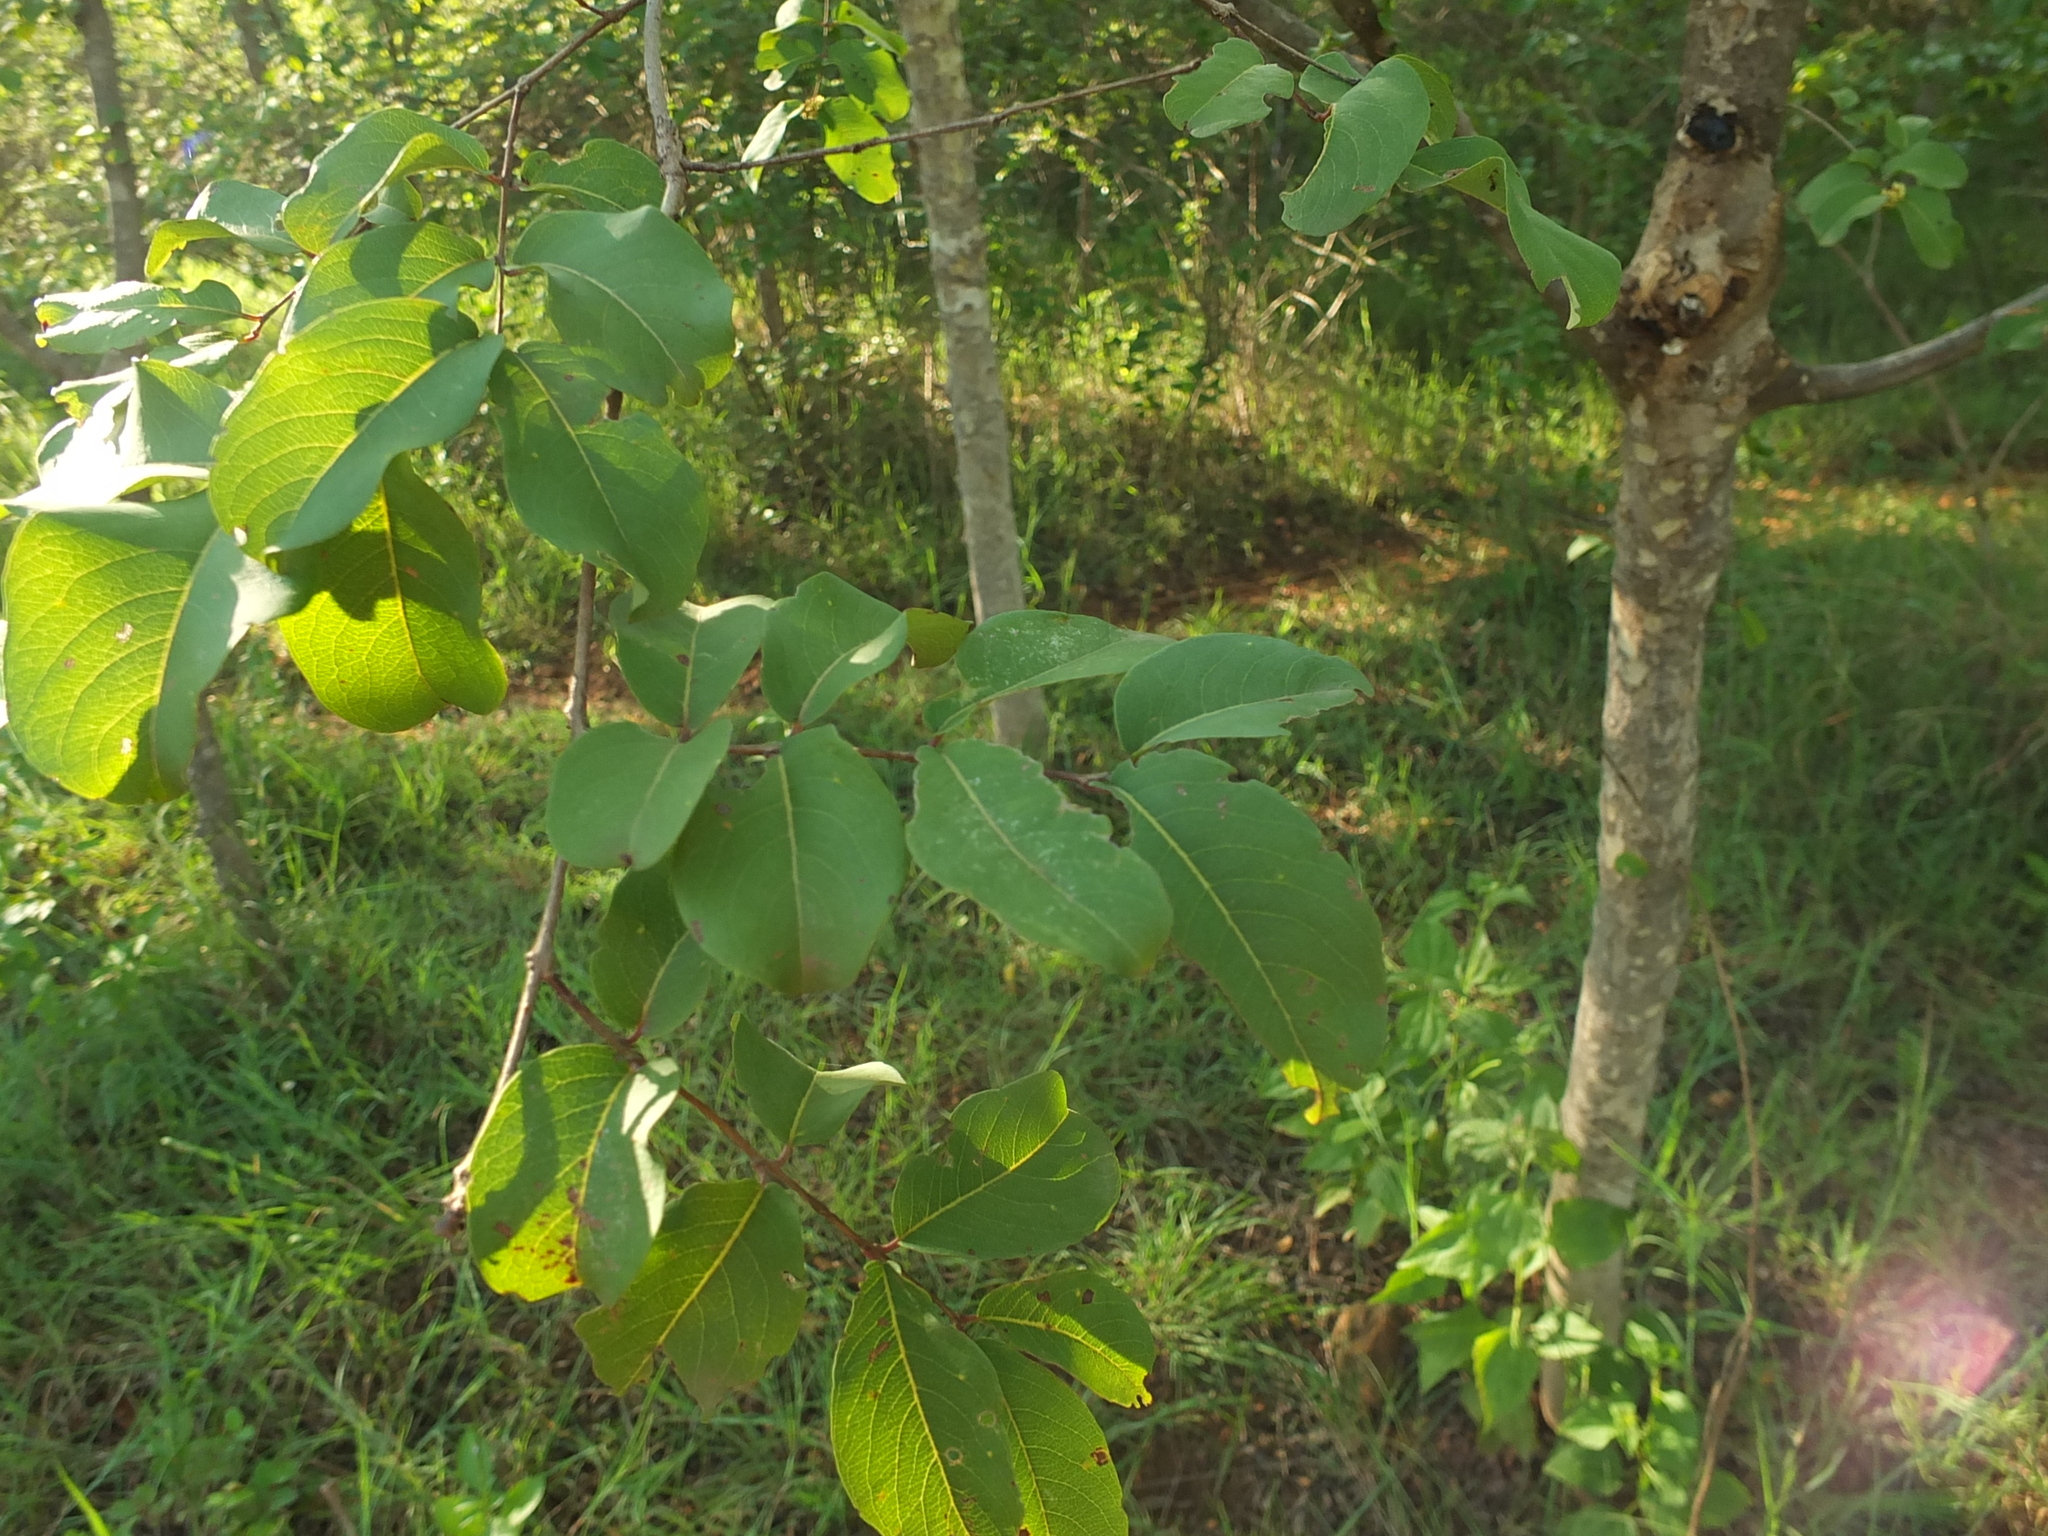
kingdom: Plantae
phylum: Tracheophyta
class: Magnoliopsida
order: Myrtales
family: Combretaceae
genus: Terminalia
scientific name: Terminalia latifolia
